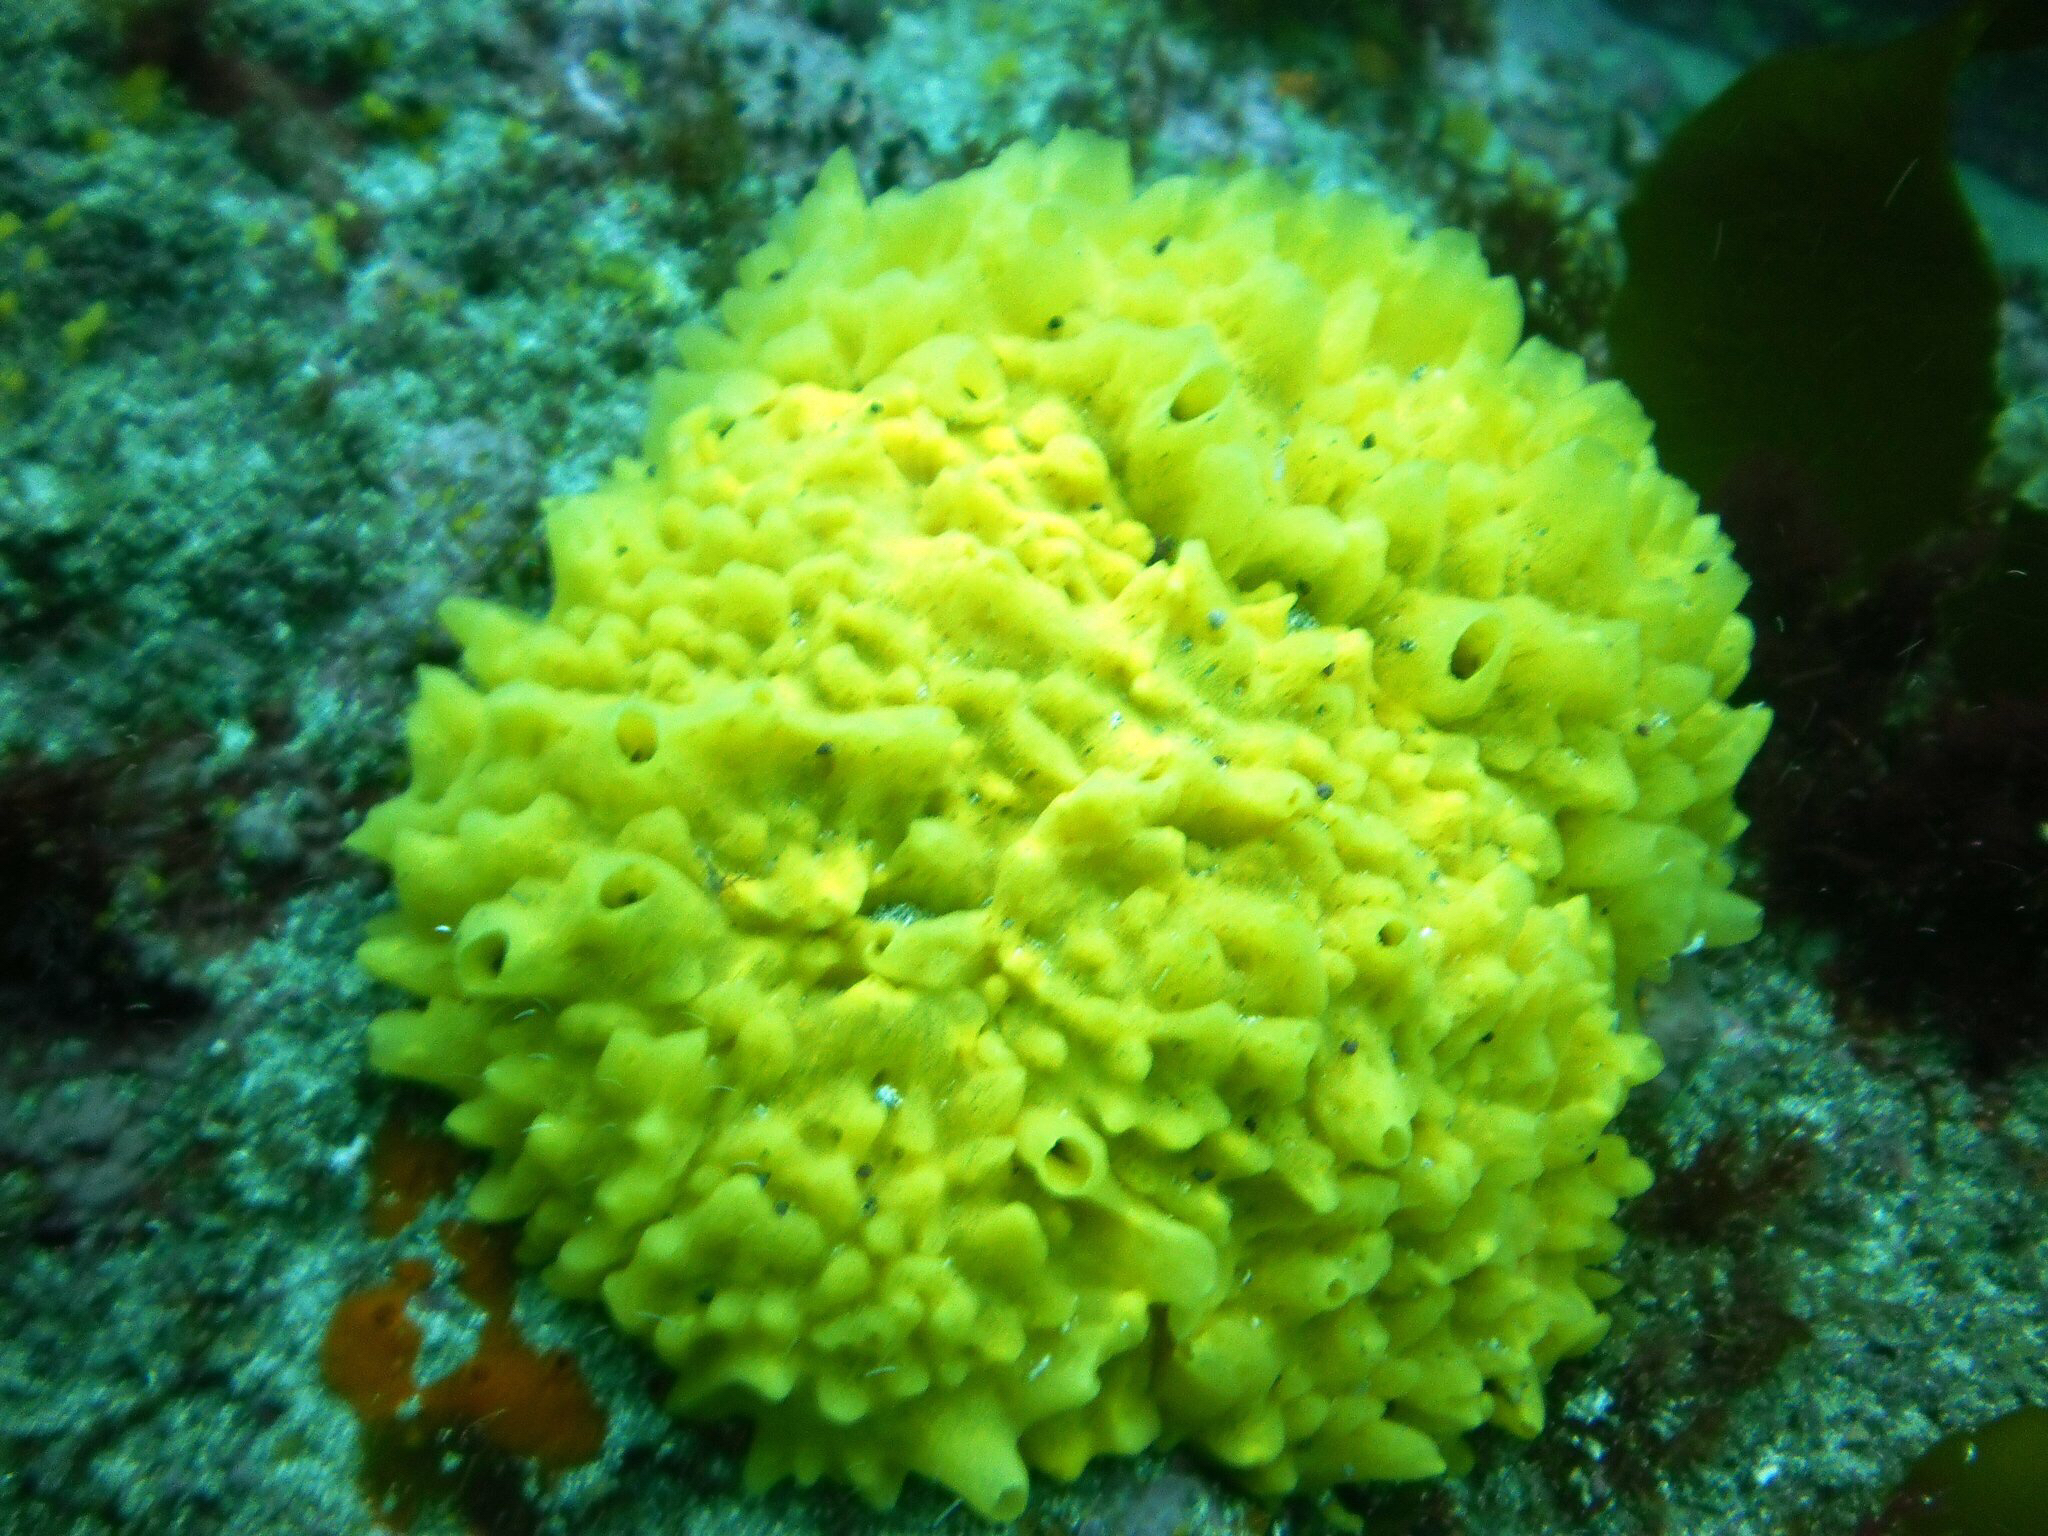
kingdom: Animalia
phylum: Porifera
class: Demospongiae
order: Polymastiida
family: Polymastiidae
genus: Polymastia
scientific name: Polymastia crocea
